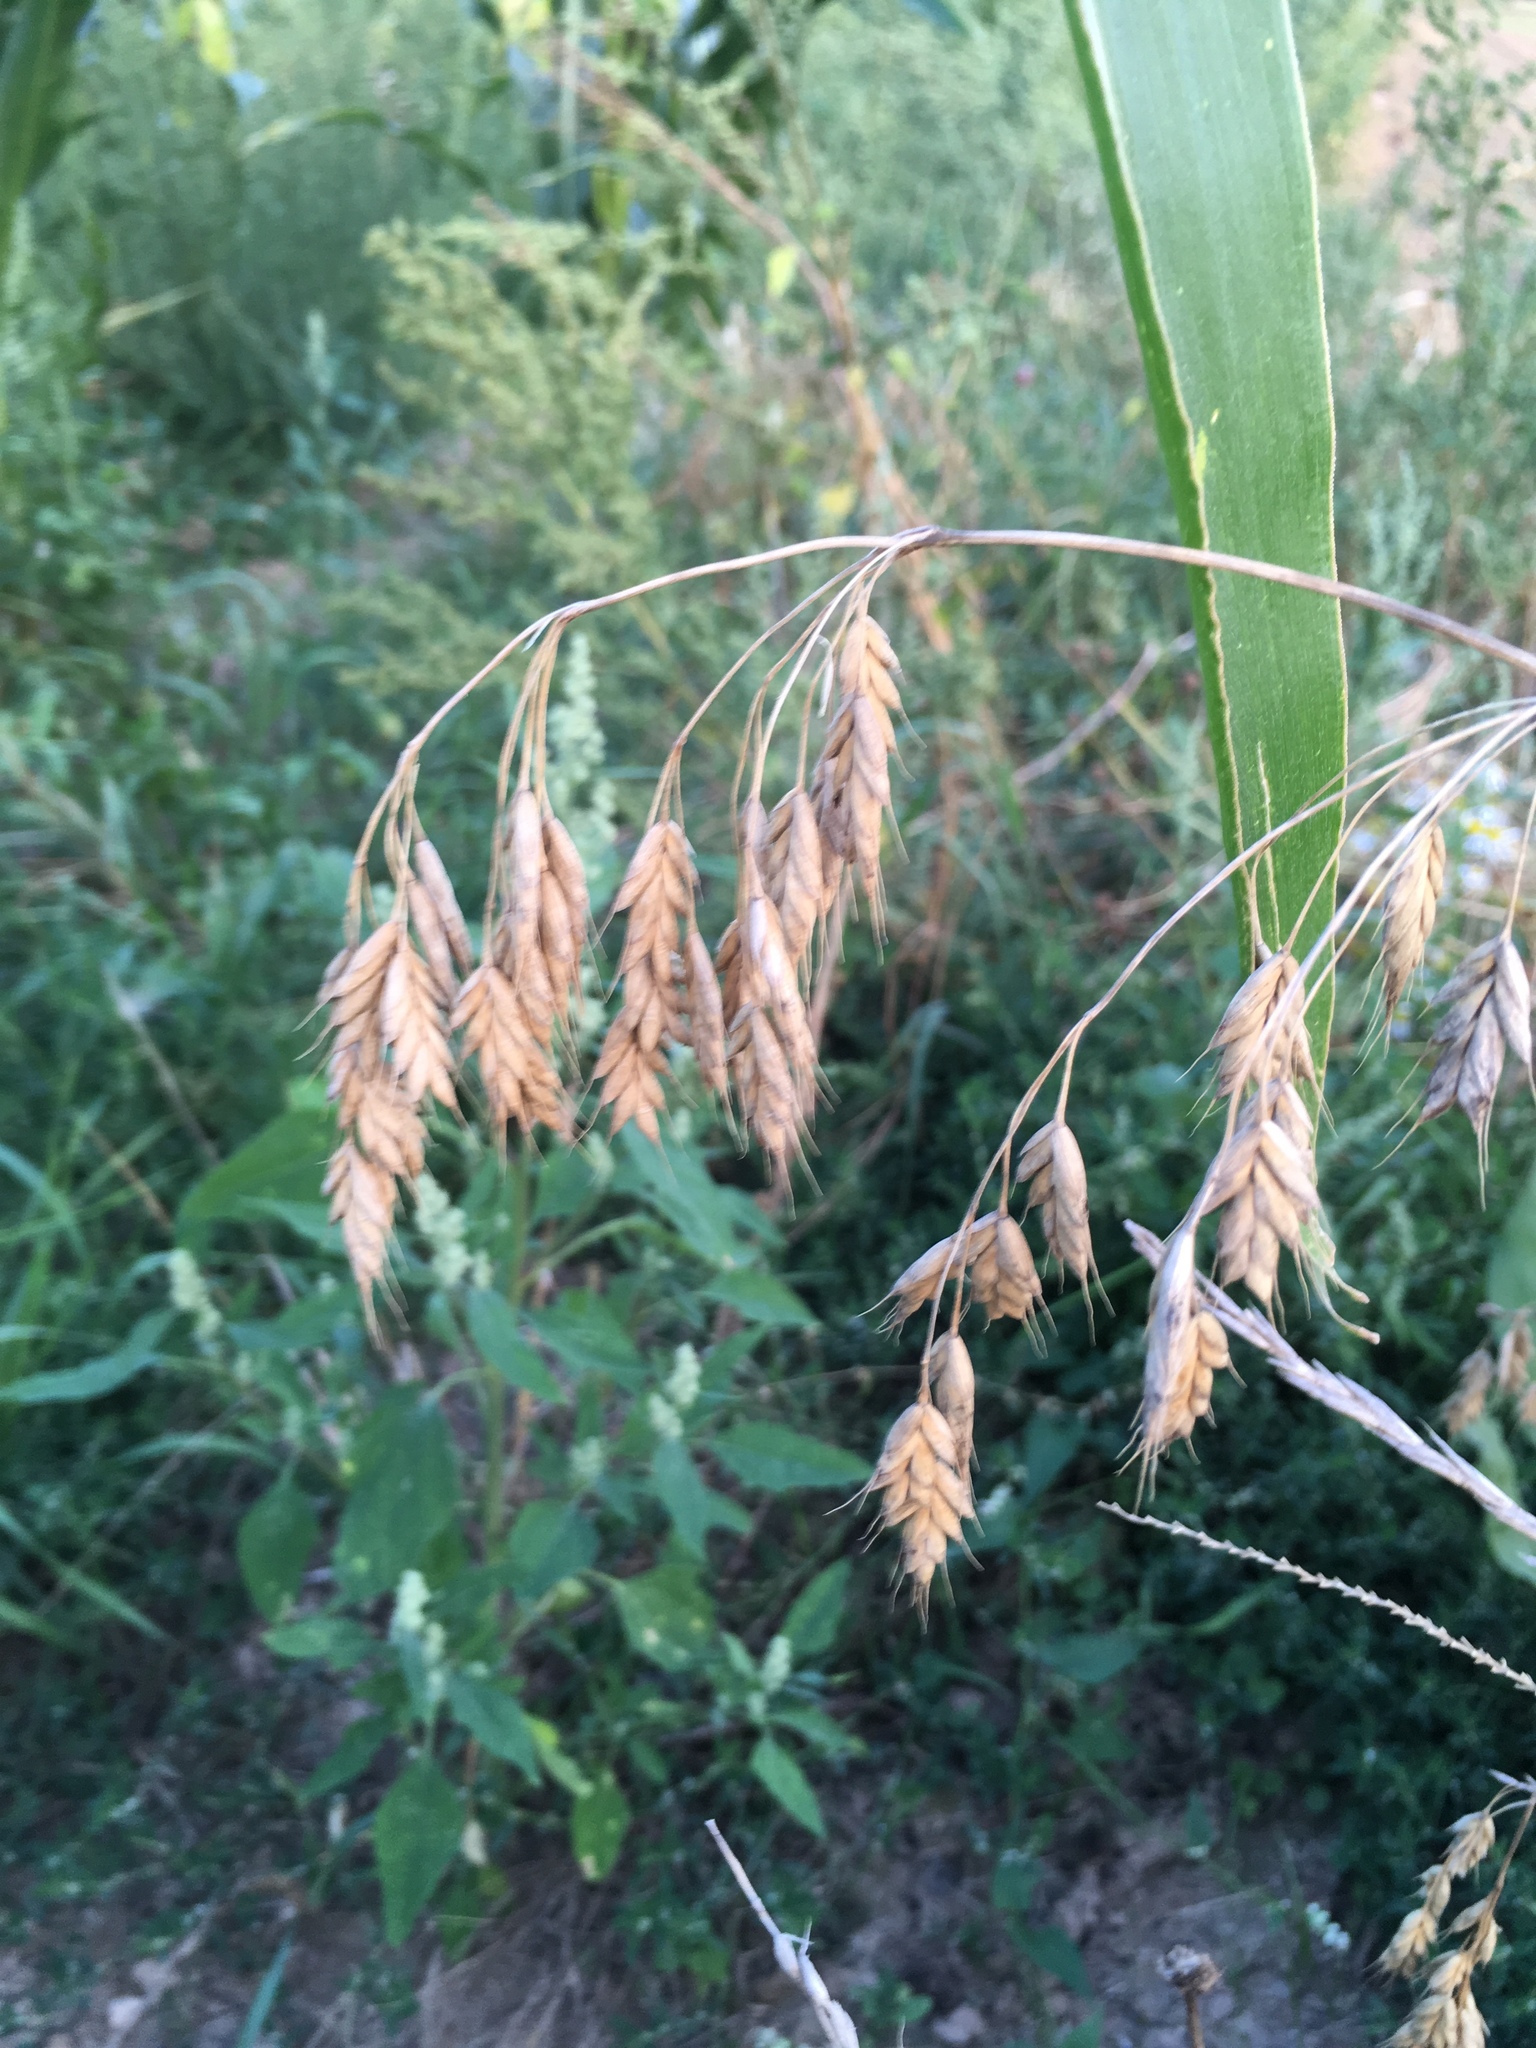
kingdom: Plantae
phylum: Tracheophyta
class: Liliopsida
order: Poales
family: Poaceae
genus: Bromus
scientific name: Bromus secalinus
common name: Rye brome
